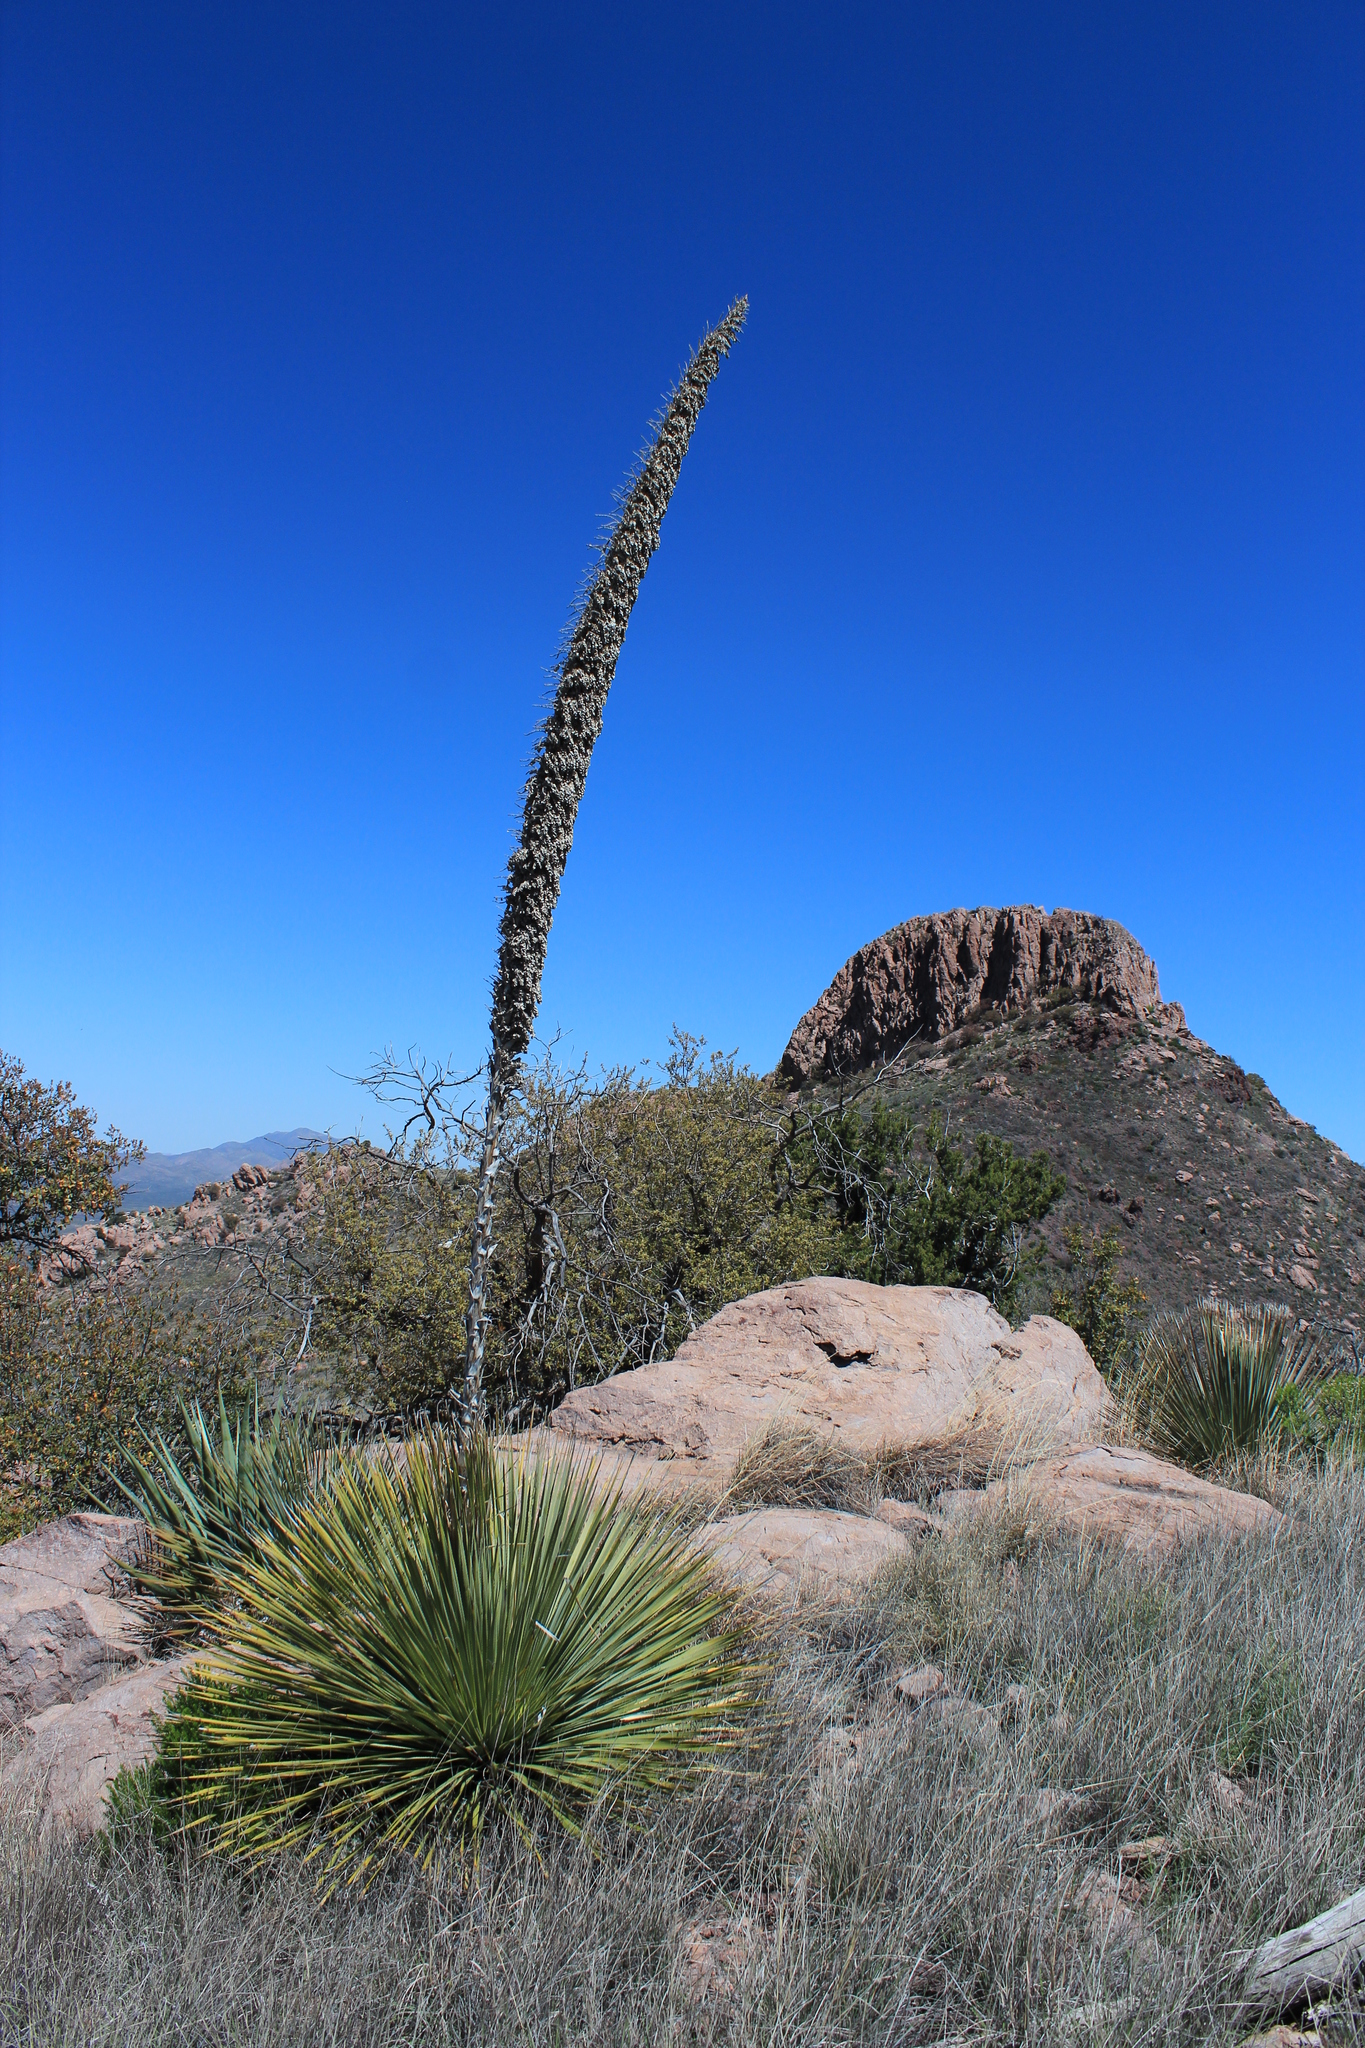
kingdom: Plantae
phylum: Tracheophyta
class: Liliopsida
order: Asparagales
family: Asparagaceae
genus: Dasylirion
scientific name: Dasylirion wheeleri
